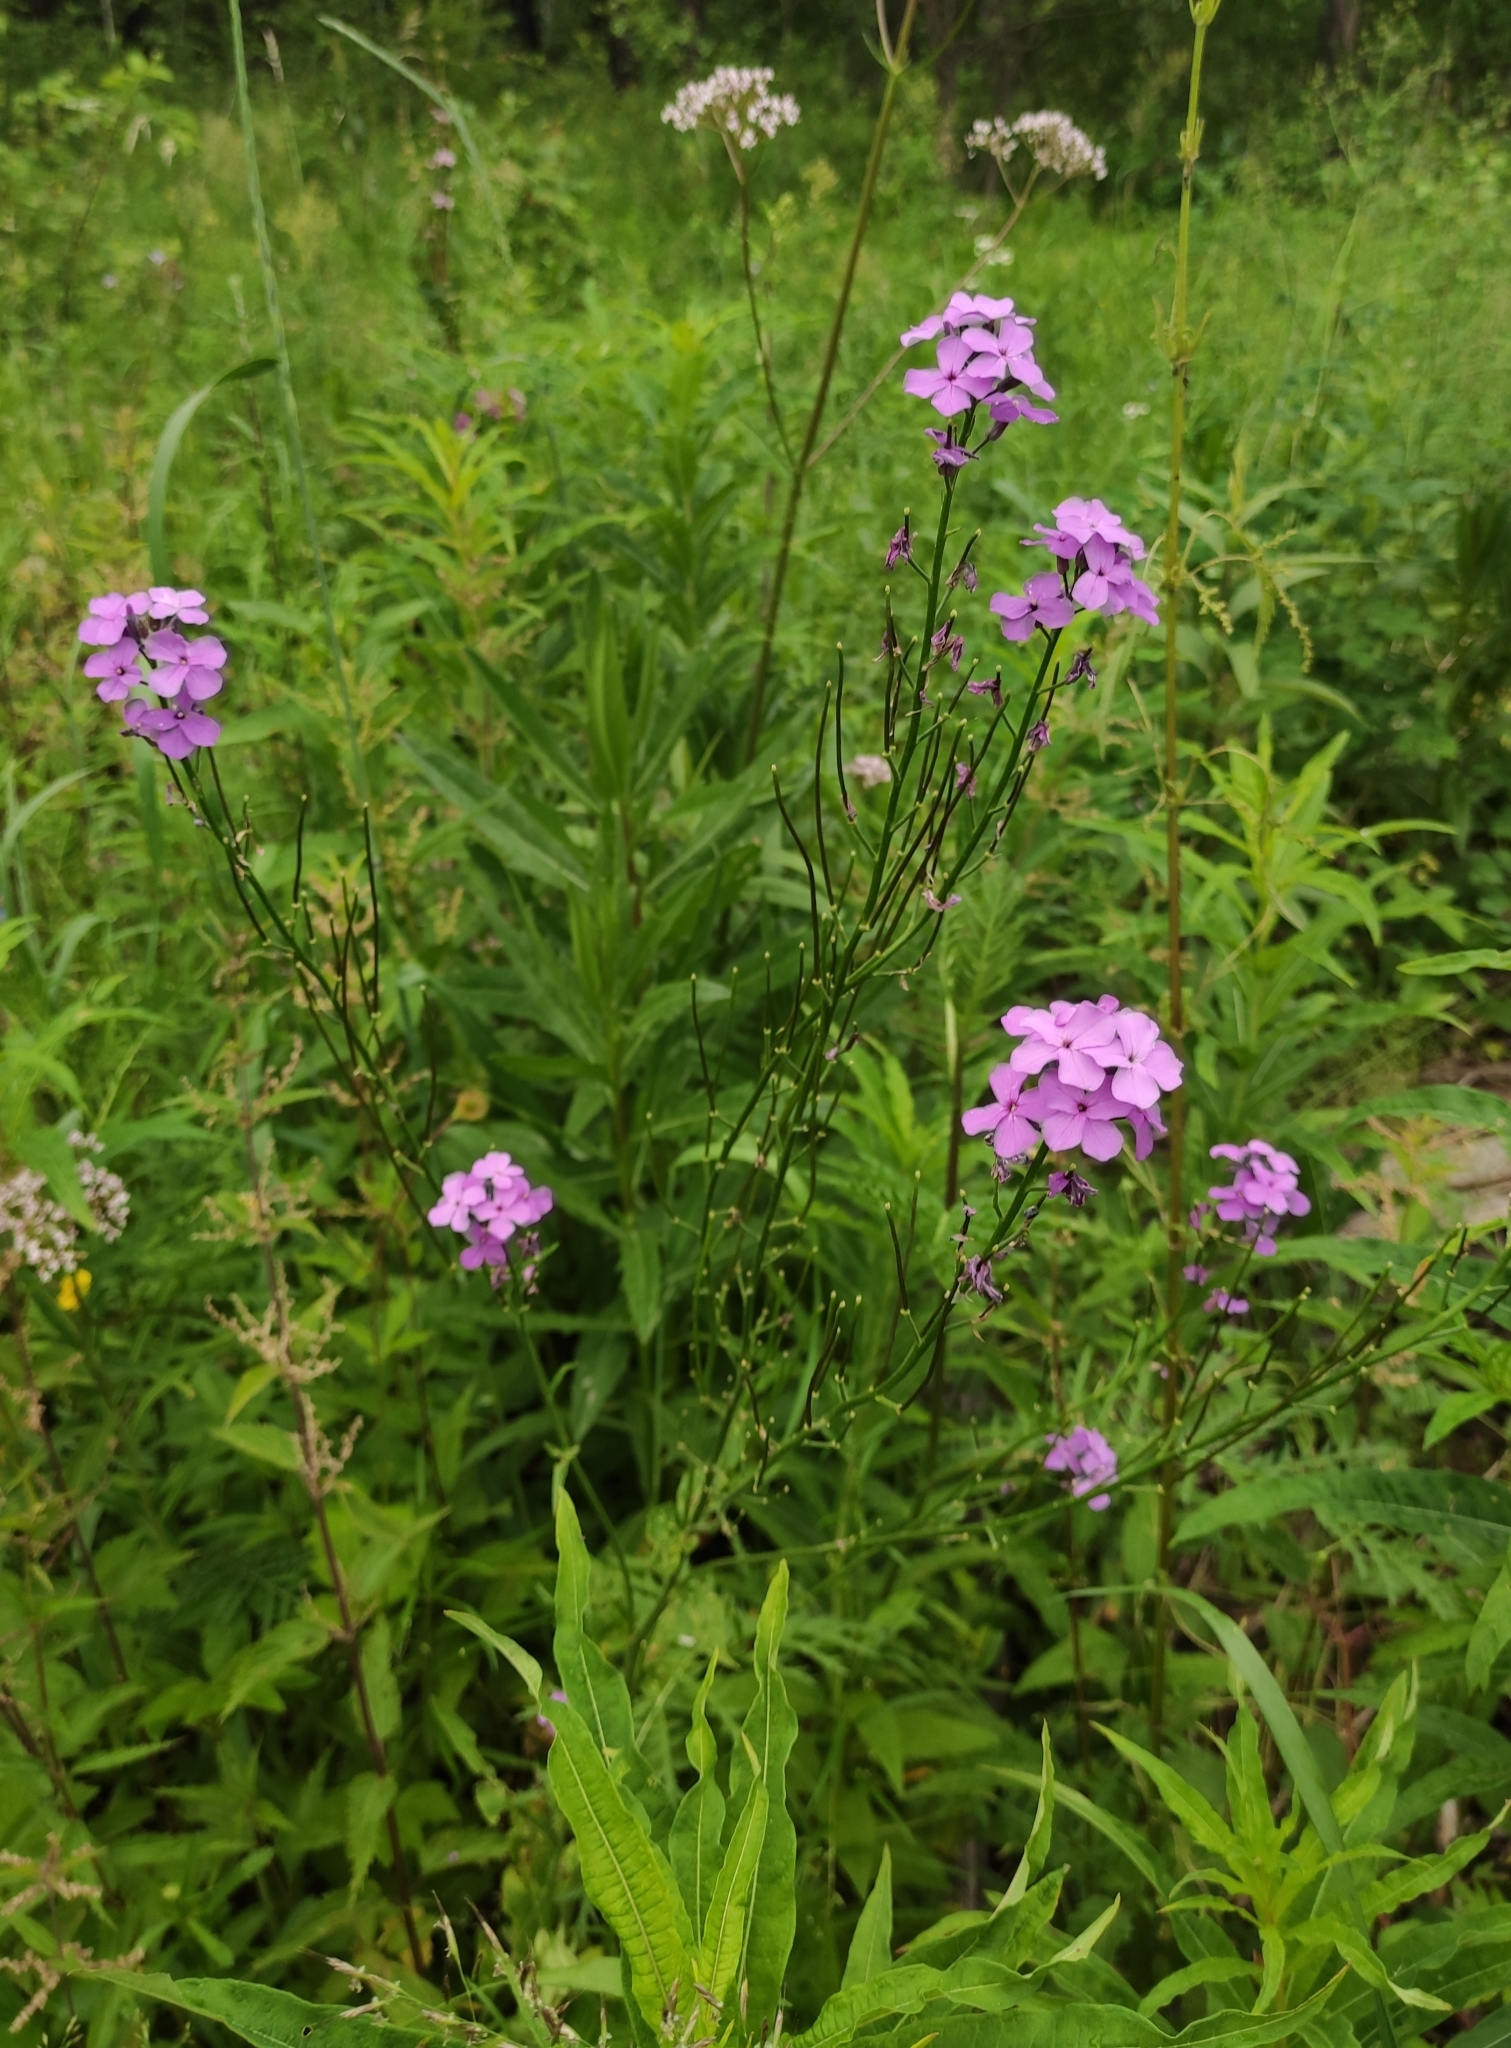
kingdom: Plantae
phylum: Tracheophyta
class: Magnoliopsida
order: Brassicales
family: Brassicaceae
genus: Hesperis
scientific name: Hesperis sibirica
